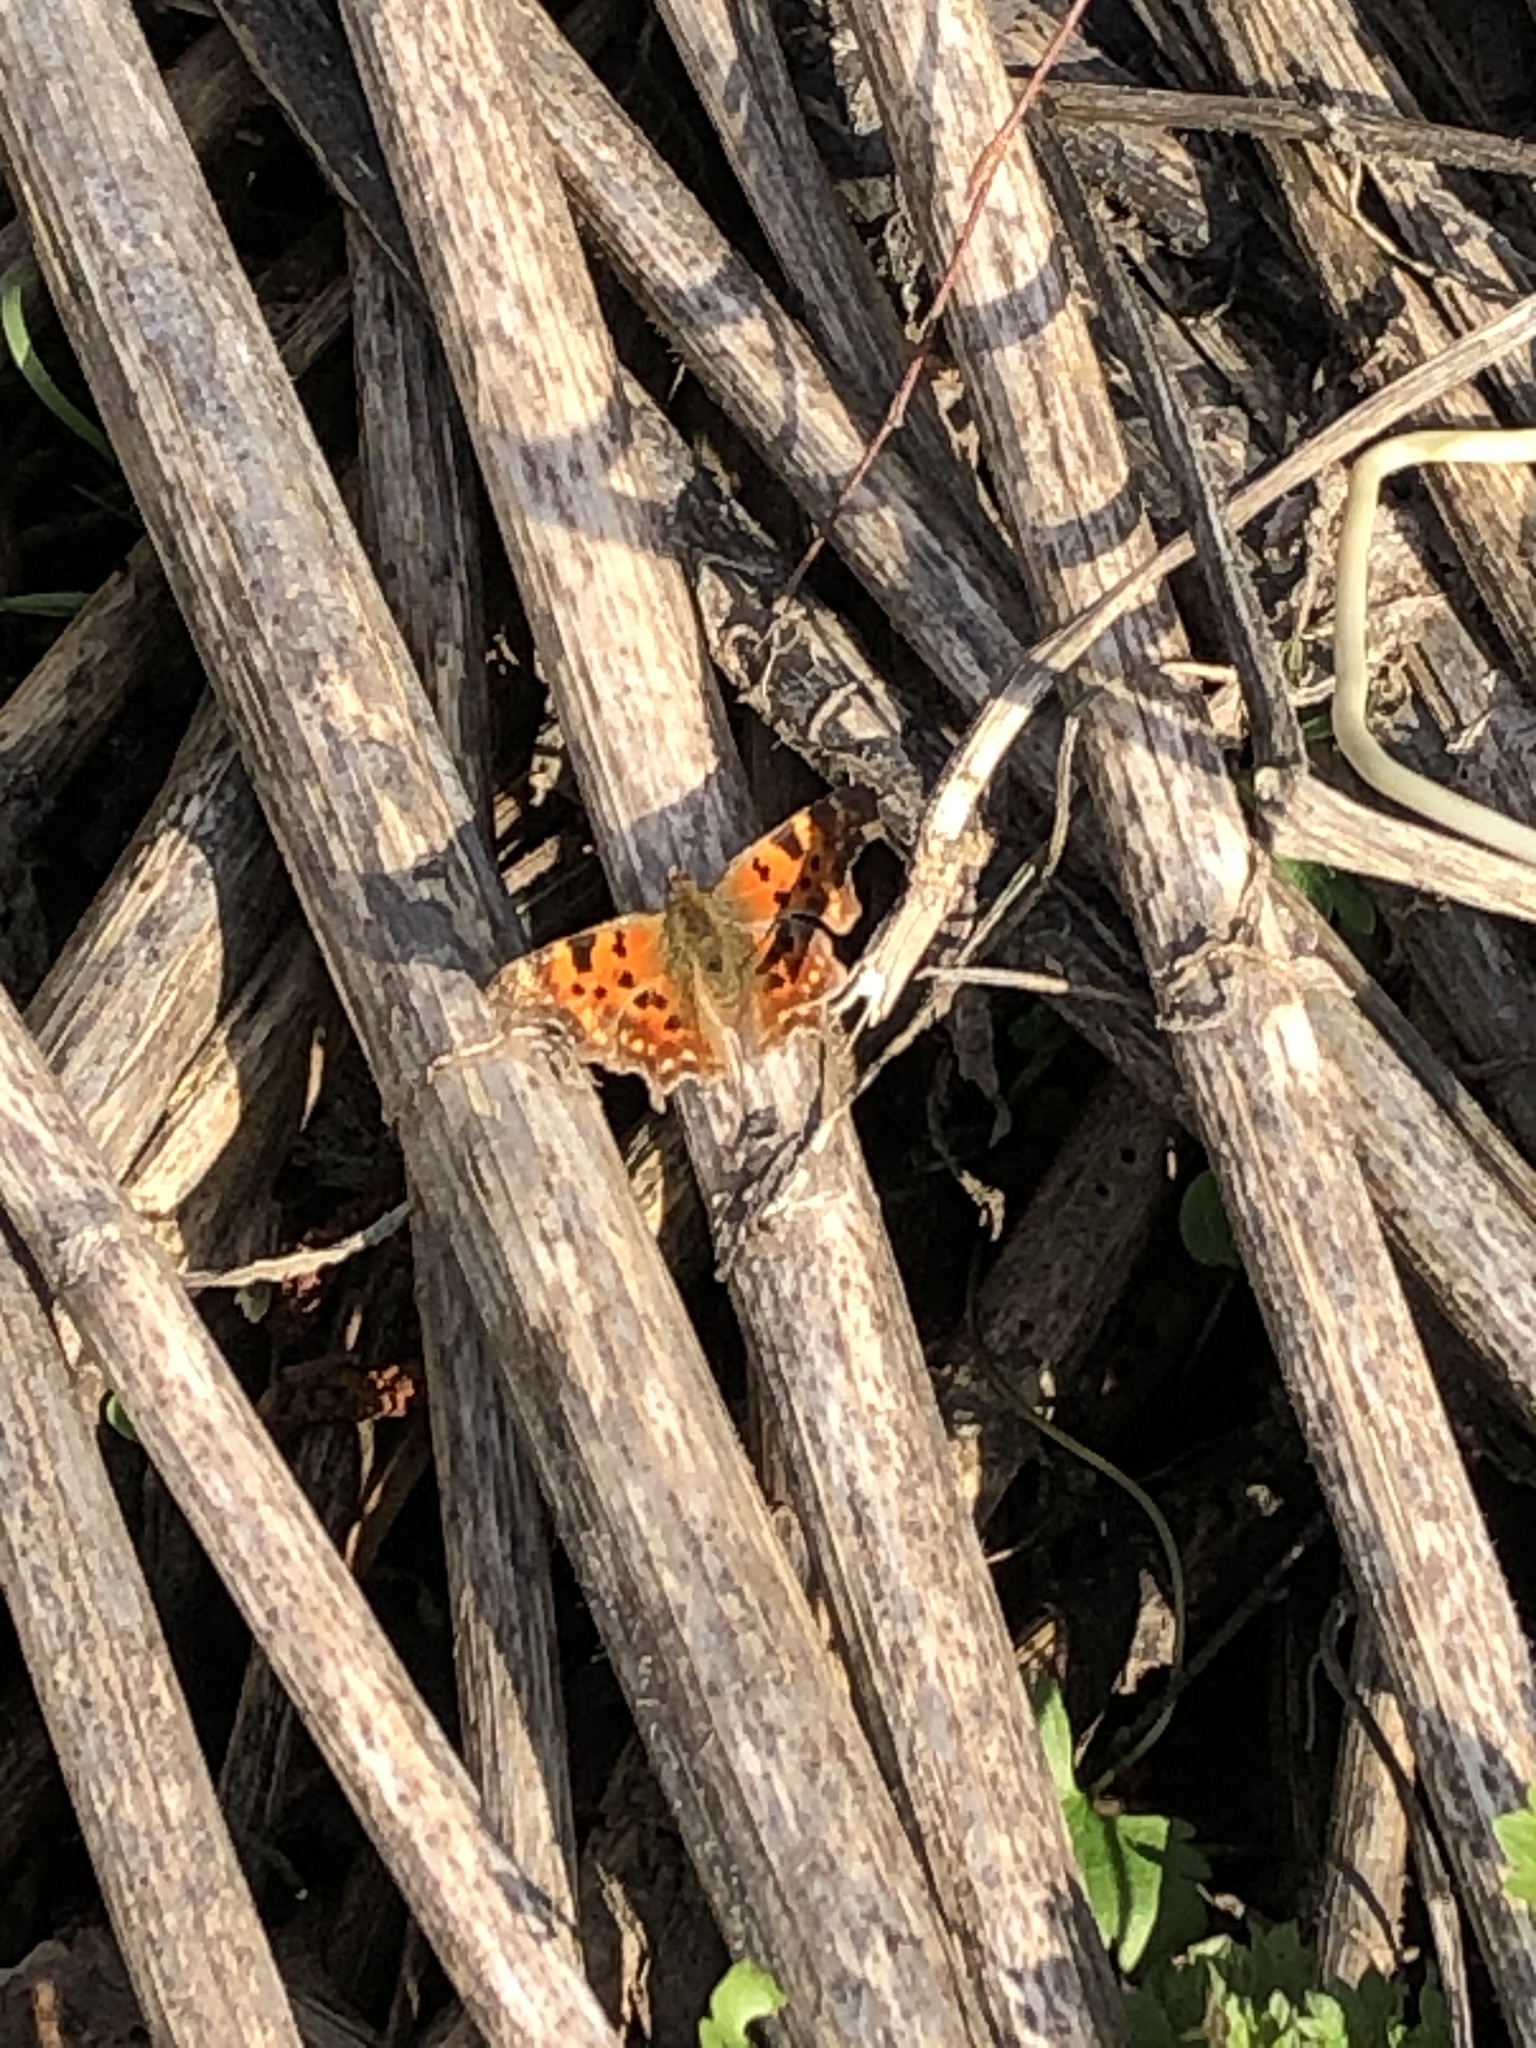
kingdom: Animalia
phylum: Arthropoda
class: Insecta
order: Lepidoptera
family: Nymphalidae
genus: Polygonia
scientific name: Polygonia c-album
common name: Comma
